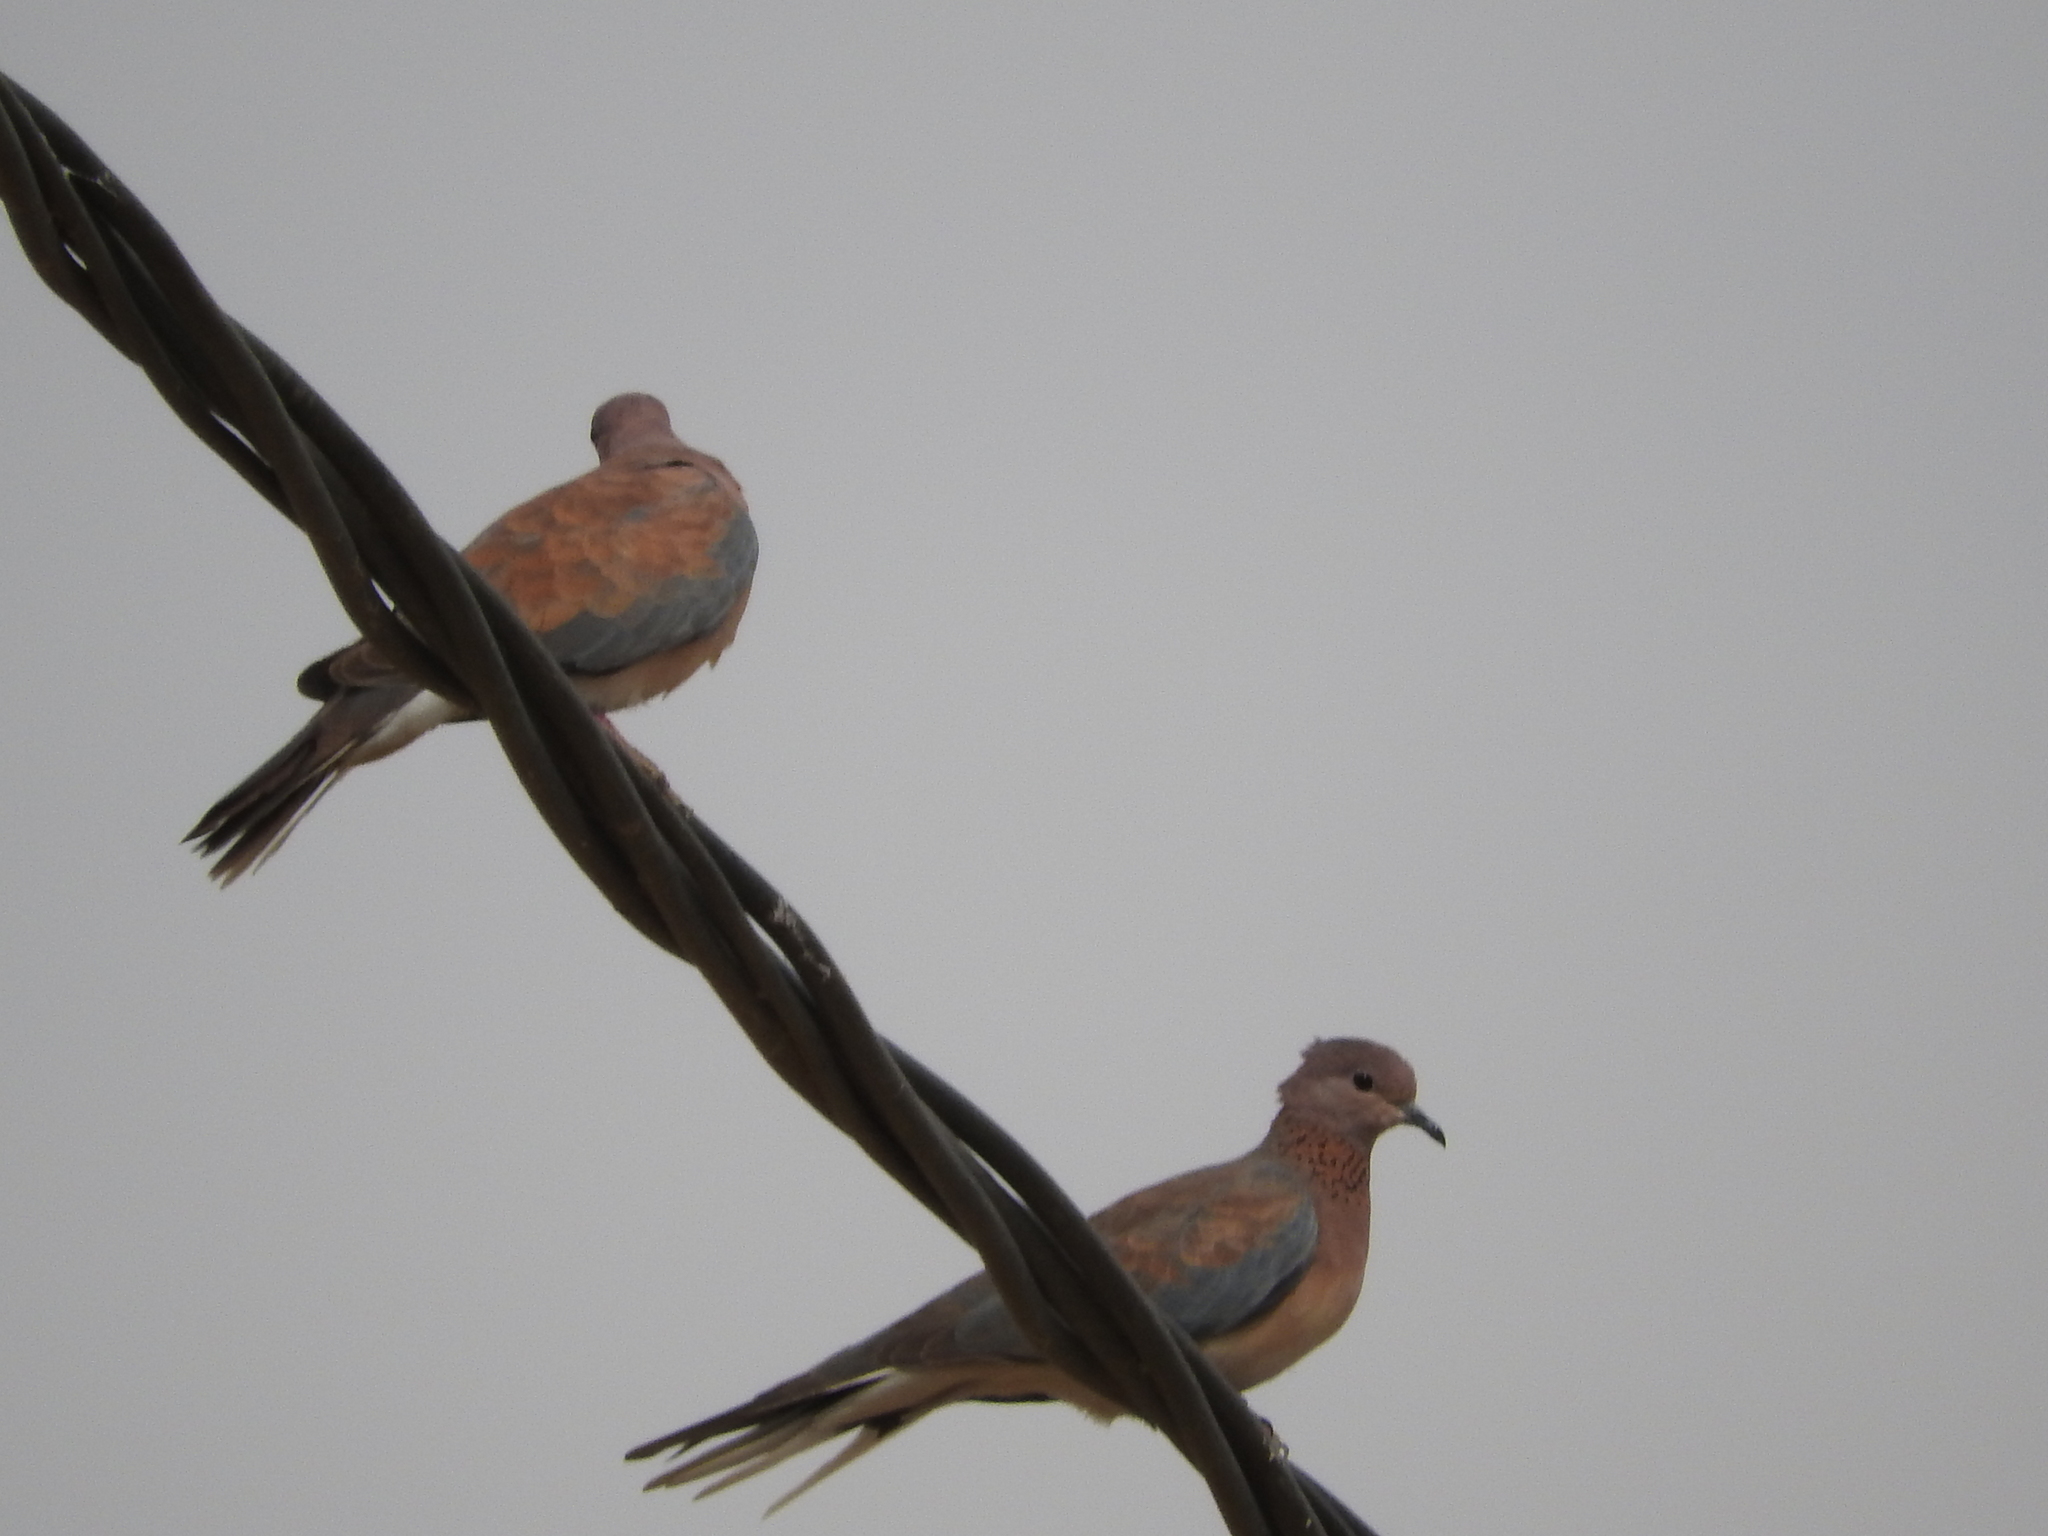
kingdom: Animalia
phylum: Chordata
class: Aves
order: Columbiformes
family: Columbidae
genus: Spilopelia
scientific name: Spilopelia senegalensis
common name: Laughing dove
